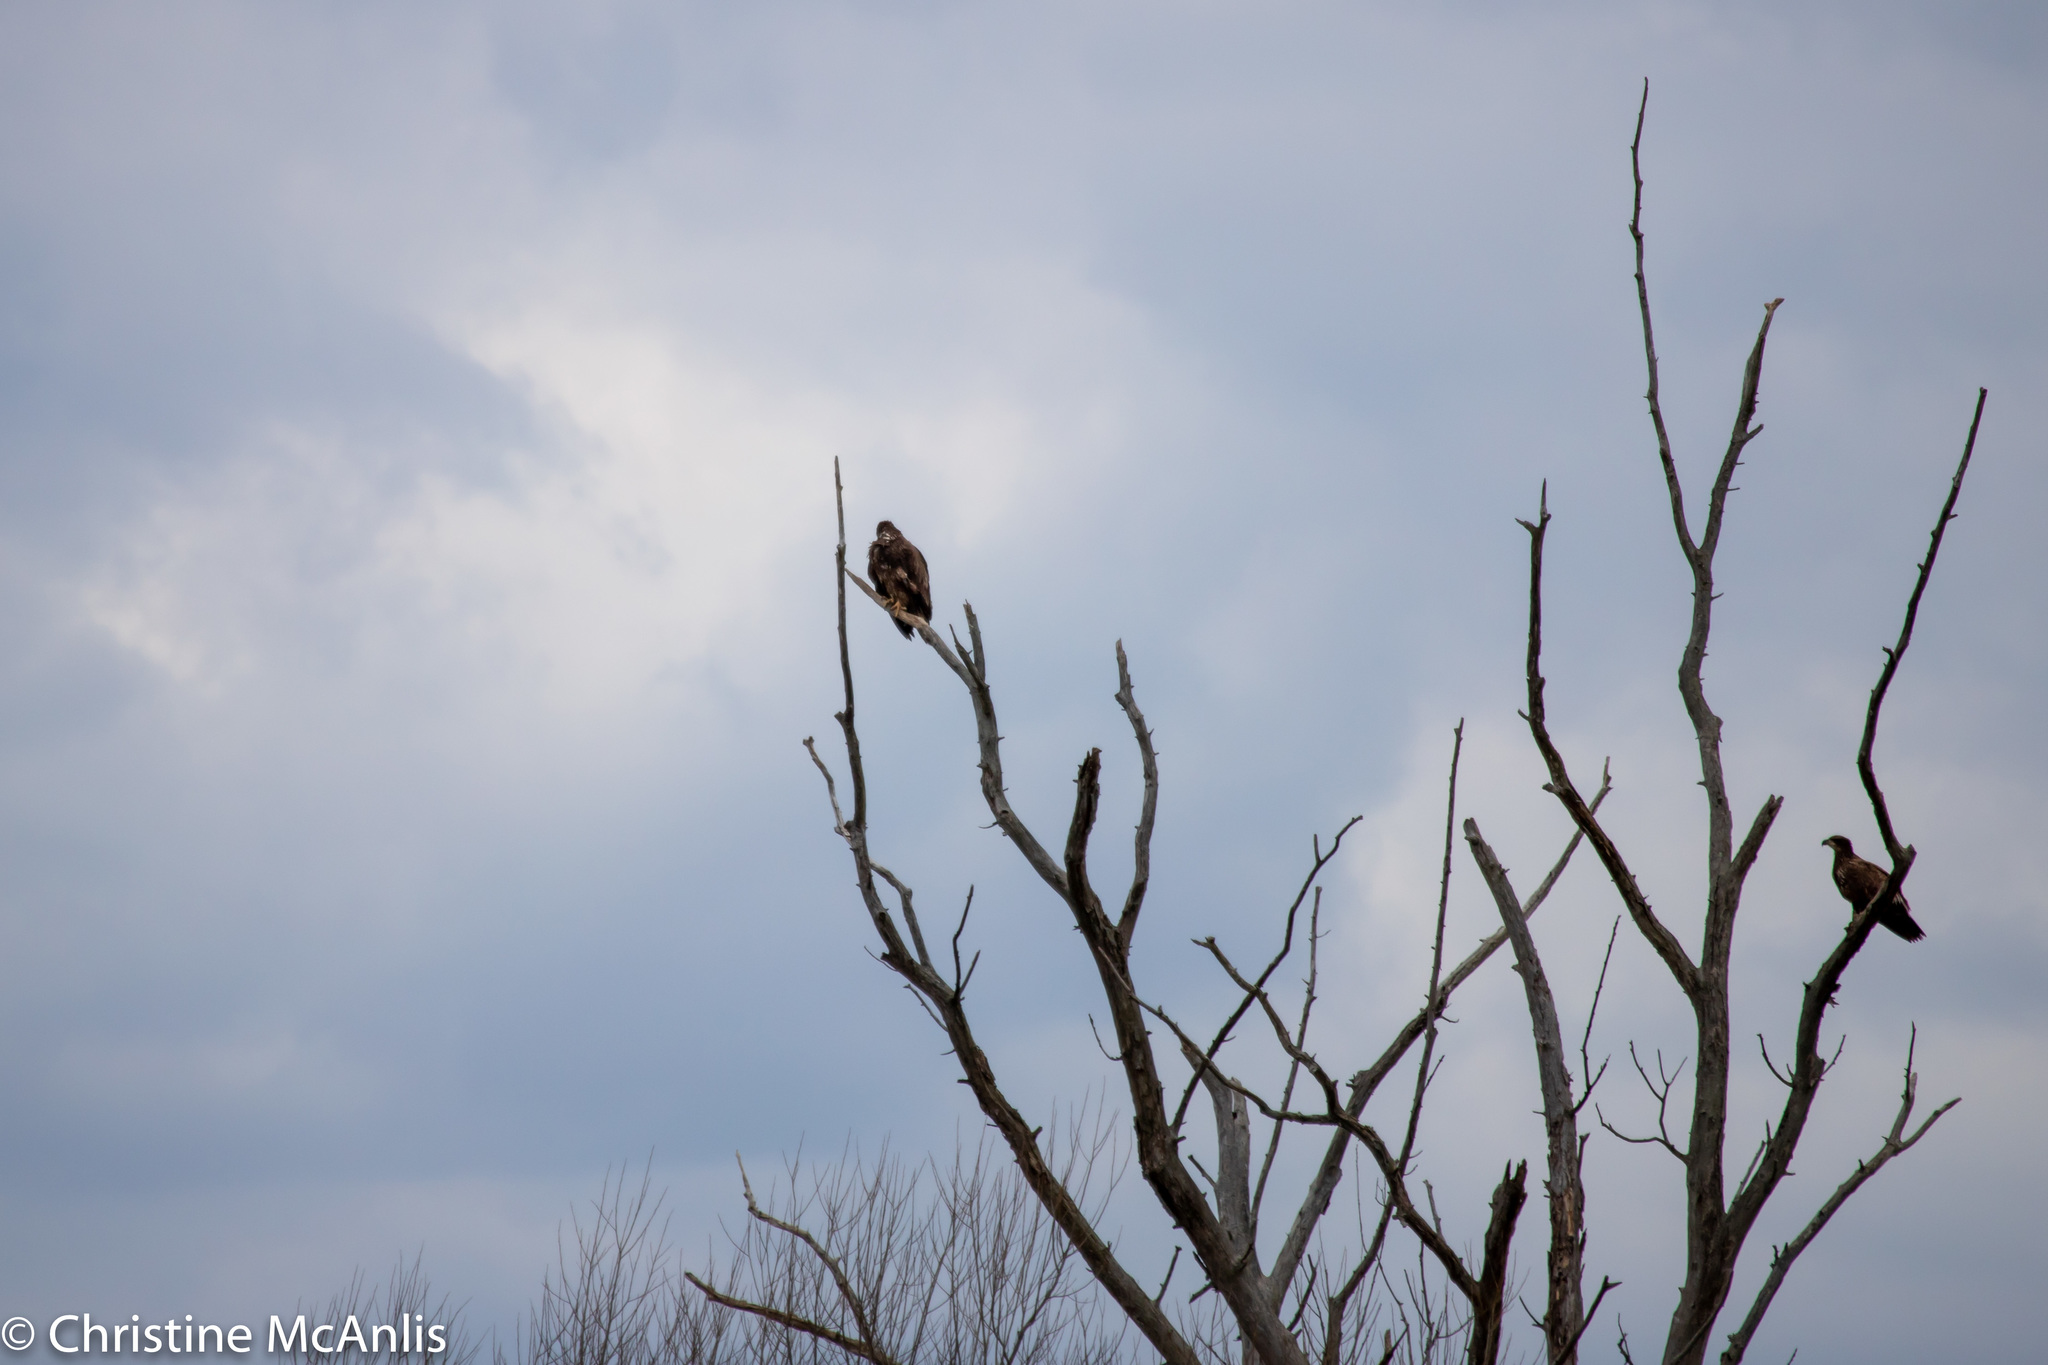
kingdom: Animalia
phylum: Chordata
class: Aves
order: Accipitriformes
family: Accipitridae
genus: Haliaeetus
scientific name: Haliaeetus leucocephalus
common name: Bald eagle
